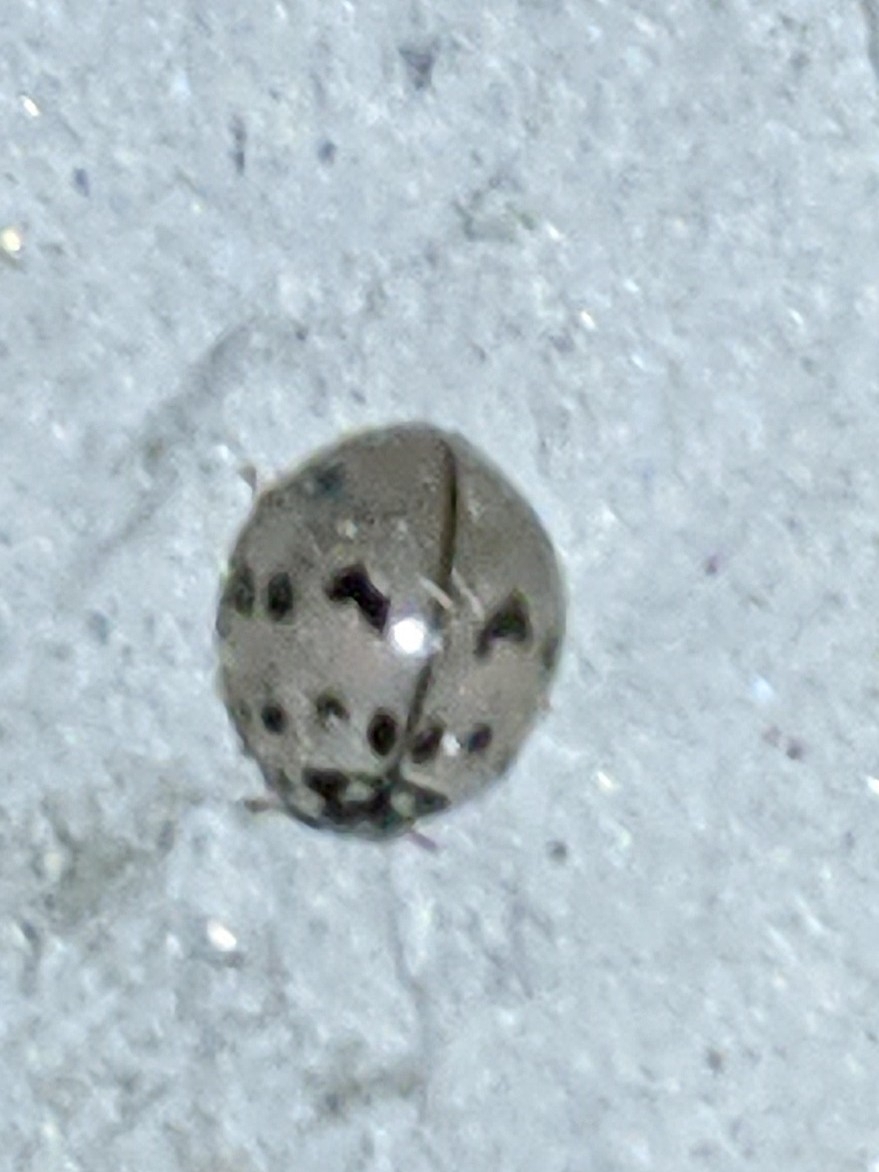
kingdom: Animalia
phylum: Arthropoda
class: Insecta
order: Coleoptera
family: Coccinellidae
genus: Olla
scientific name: Olla v-nigrum
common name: Ashy gray lady beetle
